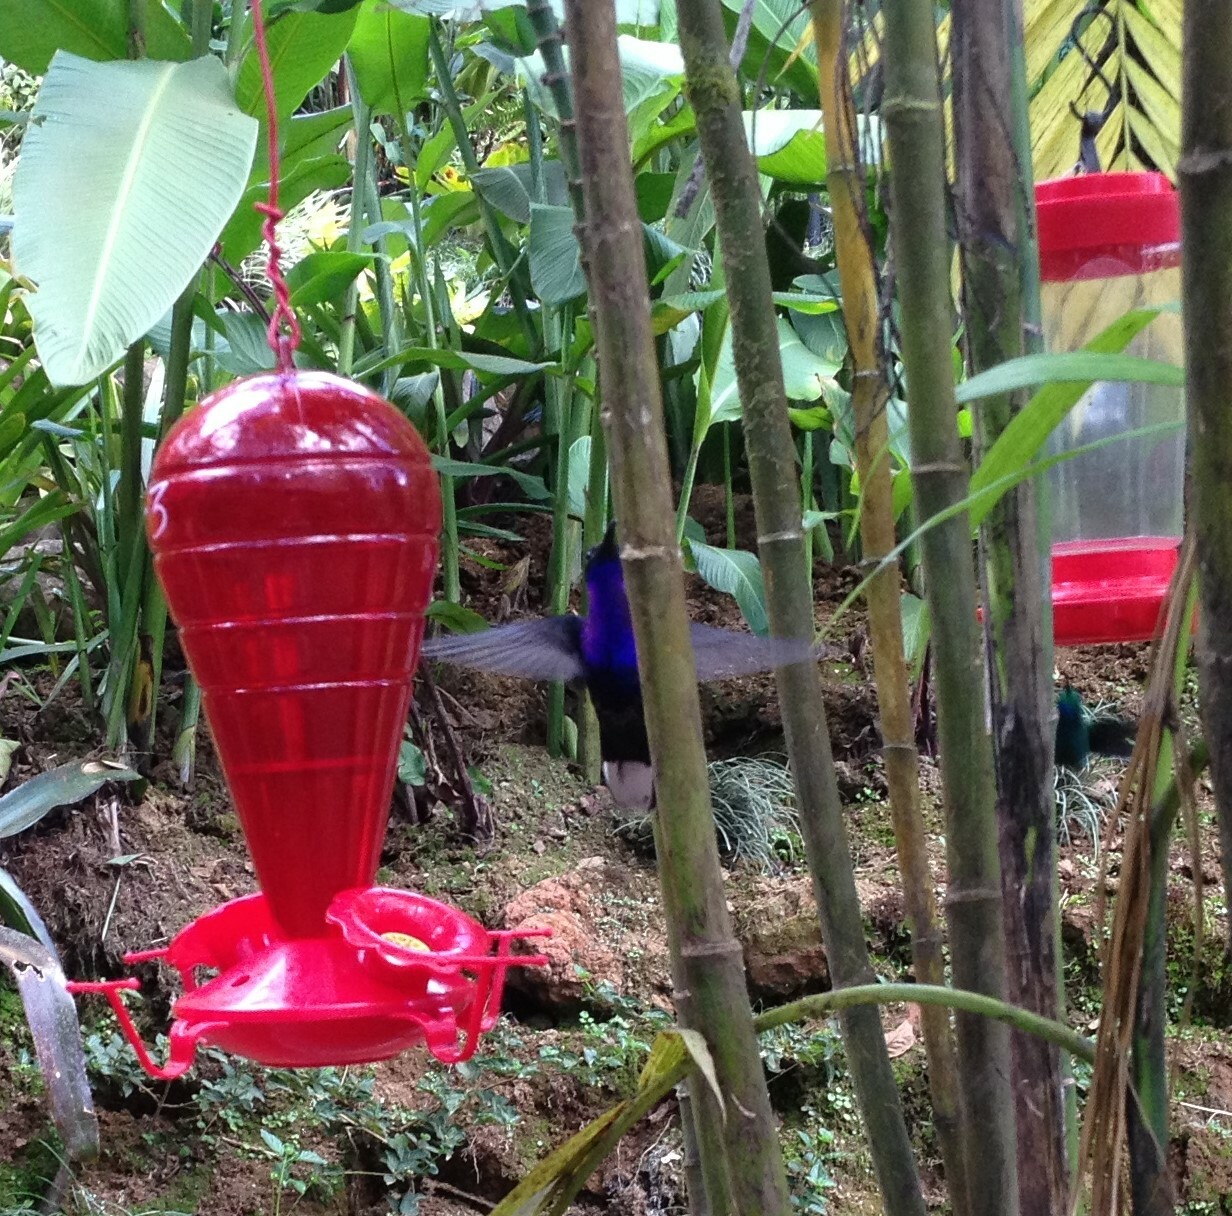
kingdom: Animalia
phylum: Chordata
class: Aves
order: Apodiformes
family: Trochilidae
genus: Campylopterus
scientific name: Campylopterus hemileucurus
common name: Violet sabrewing
